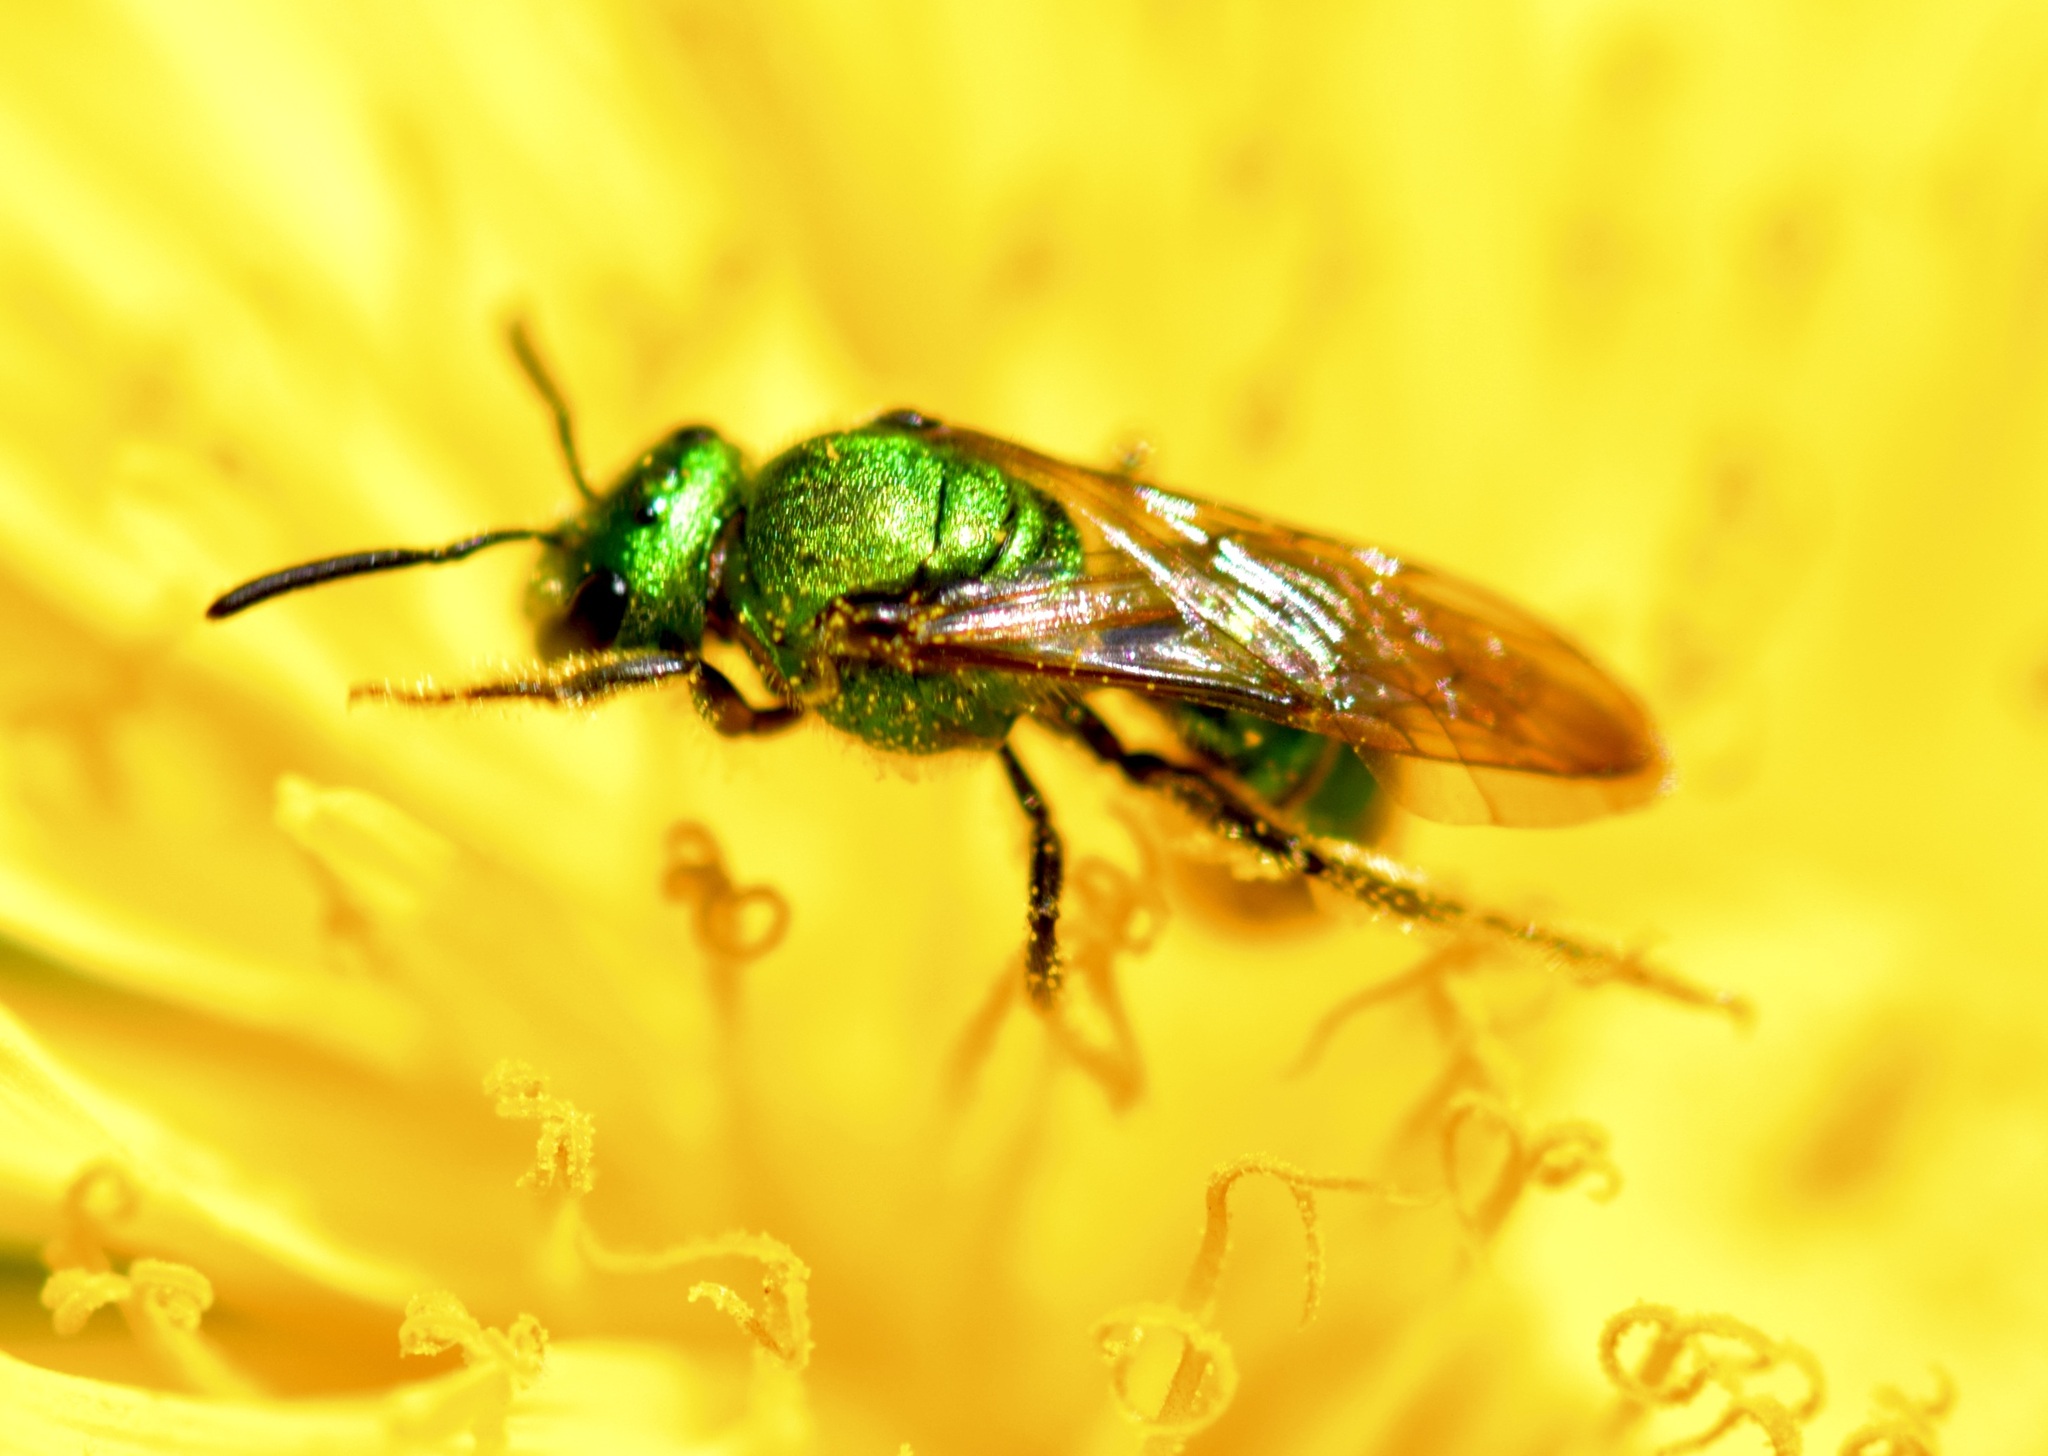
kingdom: Animalia
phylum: Arthropoda
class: Insecta
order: Hymenoptera
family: Halictidae
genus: Augochlora
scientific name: Augochlora pura
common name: Pure green sweat bee
